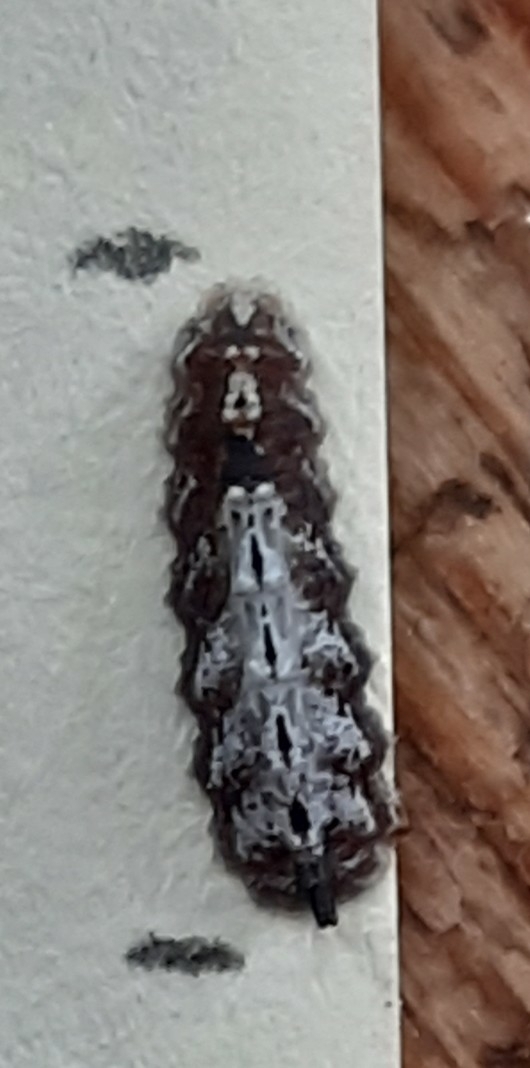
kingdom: Animalia
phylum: Arthropoda
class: Insecta
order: Diptera
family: Syrphidae
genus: Meligramma
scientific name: Meligramma triangulifera
